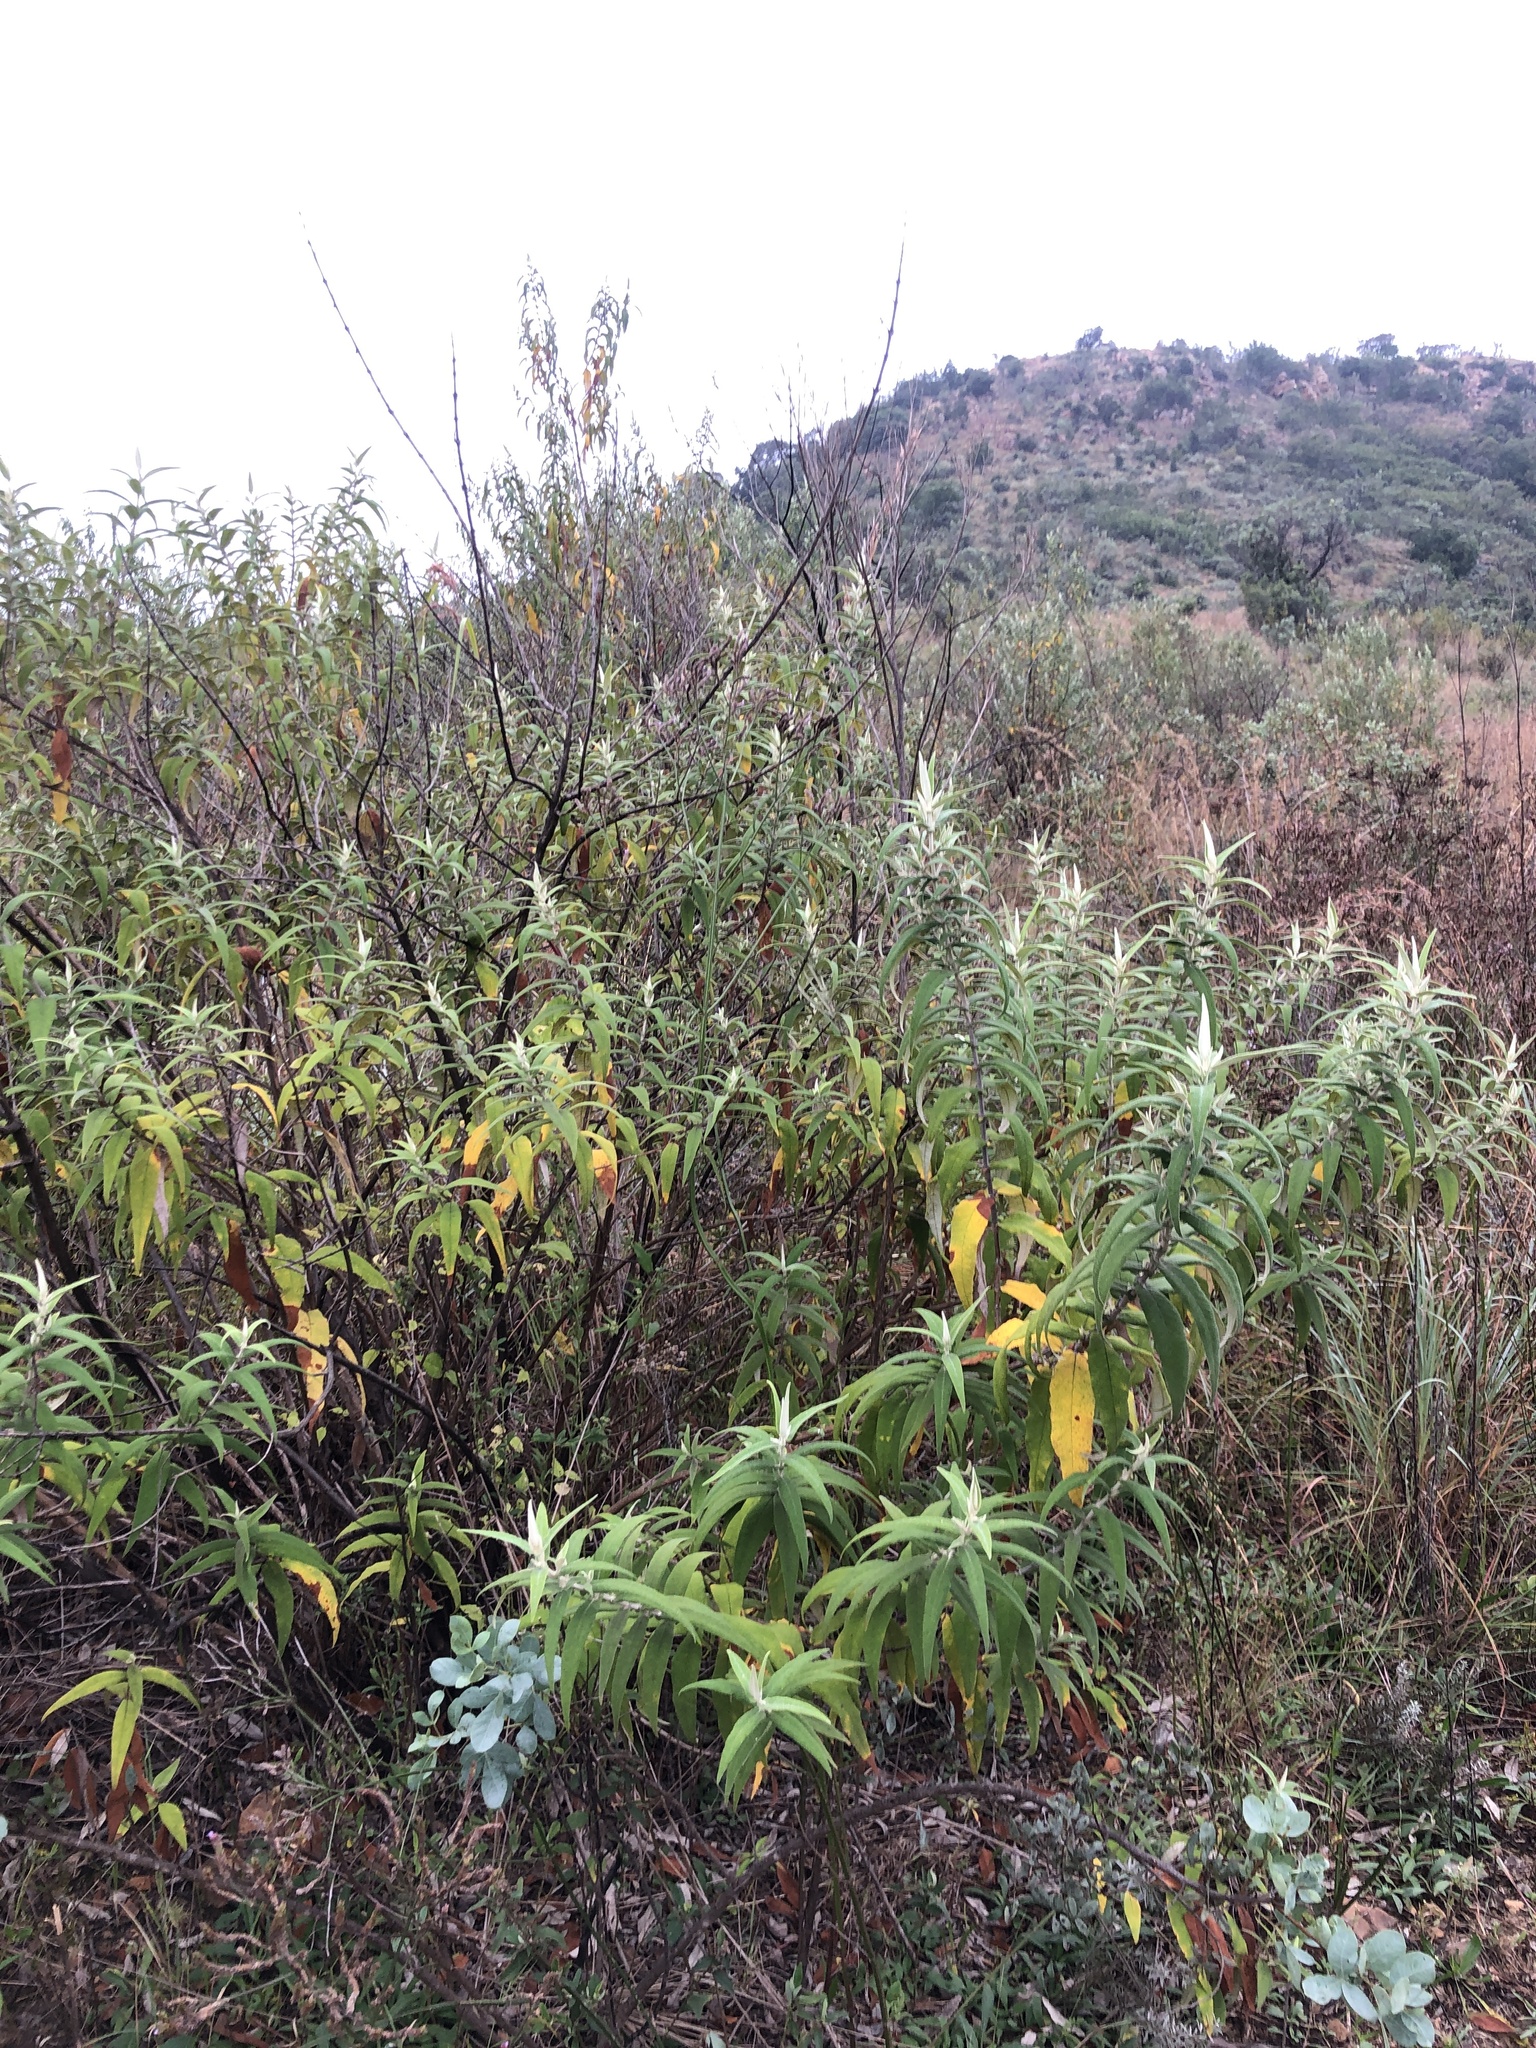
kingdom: Plantae
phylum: Tracheophyta
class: Magnoliopsida
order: Lamiales
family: Scrophulariaceae
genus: Buddleja
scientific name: Buddleja salviifolia
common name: Sagewood
